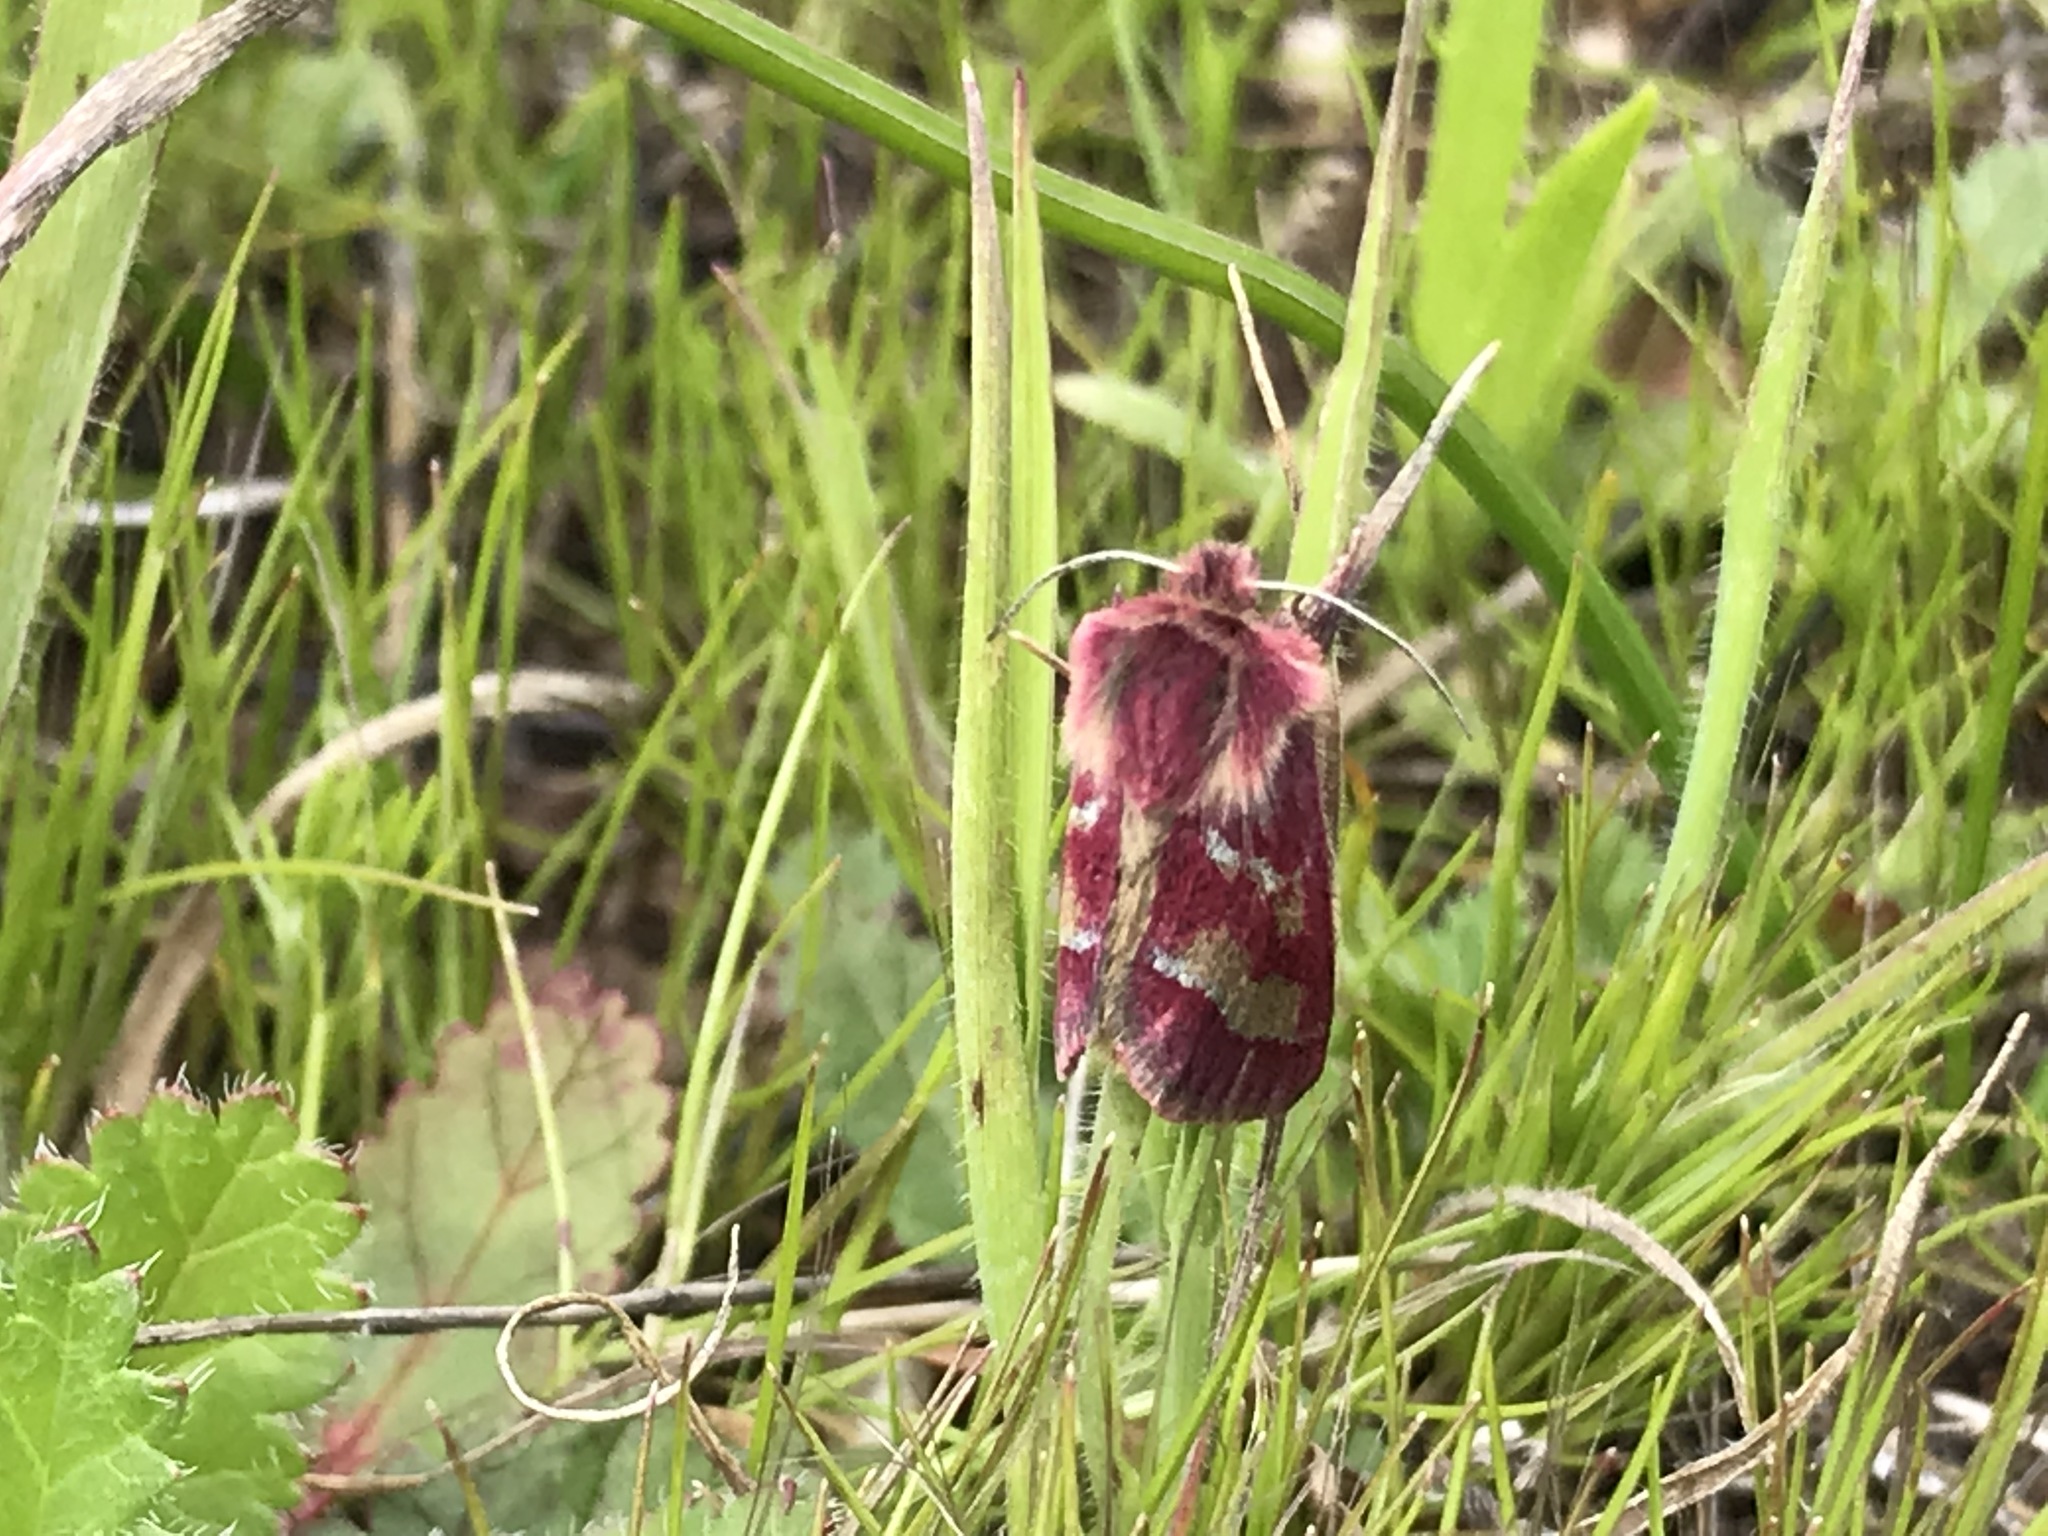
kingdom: Animalia
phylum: Arthropoda
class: Insecta
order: Lepidoptera
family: Noctuidae
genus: Schinia
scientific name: Schinia pulchripennis
